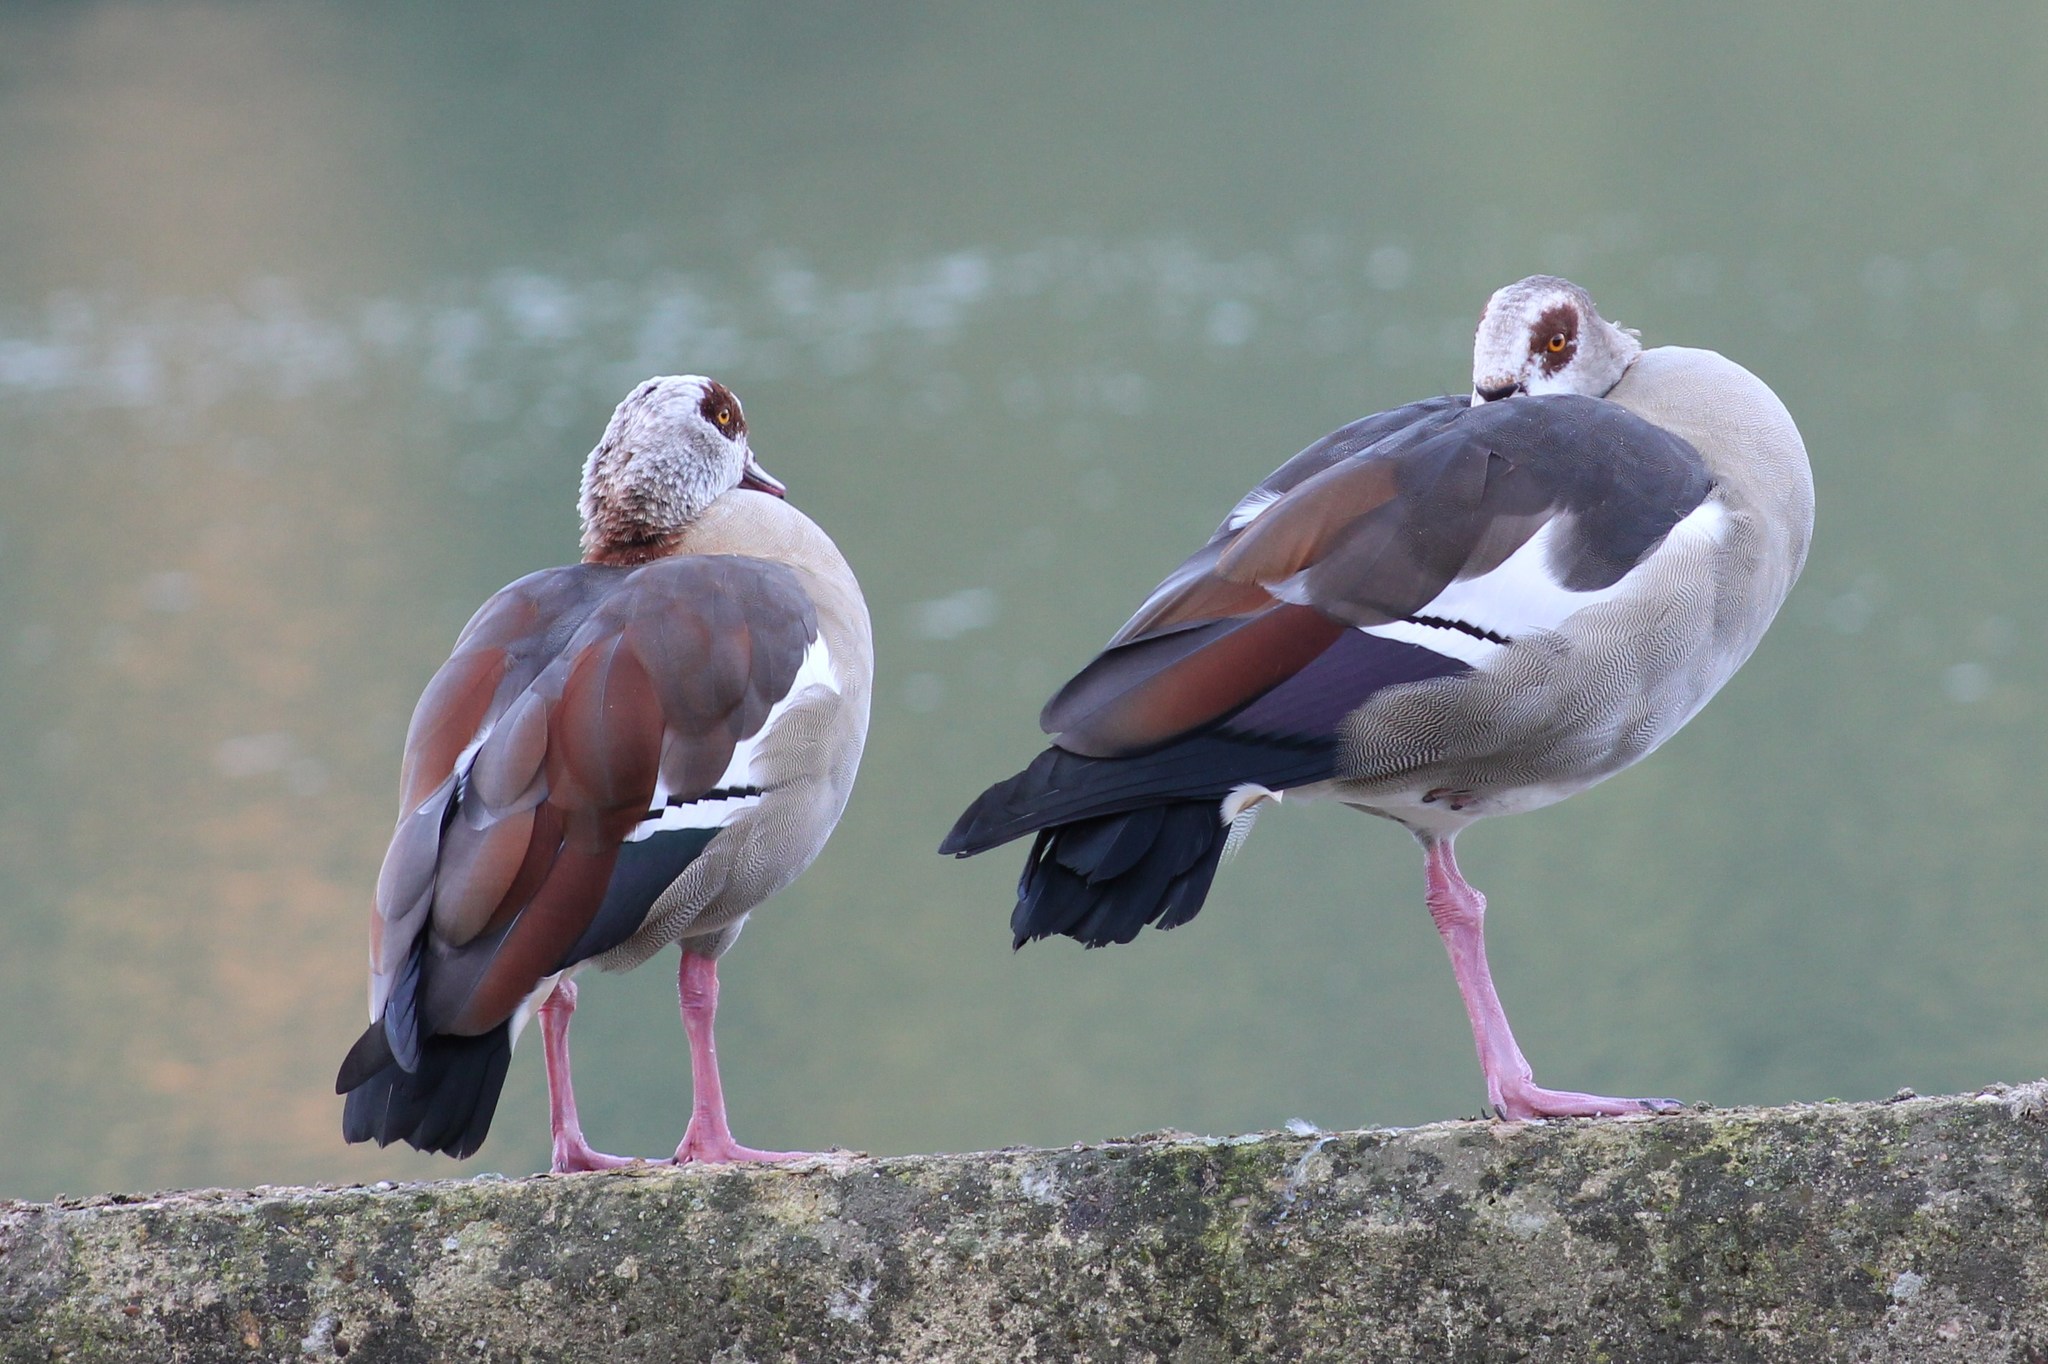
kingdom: Animalia
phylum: Chordata
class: Aves
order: Anseriformes
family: Anatidae
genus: Alopochen
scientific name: Alopochen aegyptiaca
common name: Egyptian goose
